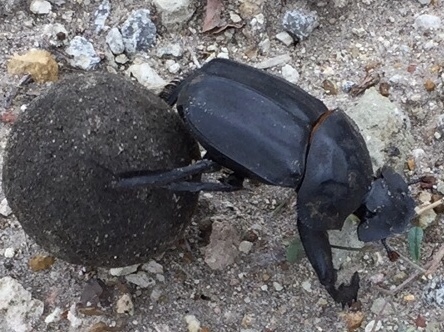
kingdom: Animalia
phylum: Arthropoda
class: Insecta
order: Coleoptera
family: Scarabaeidae
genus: Pachylomera
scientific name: Pachylomera femoralis
